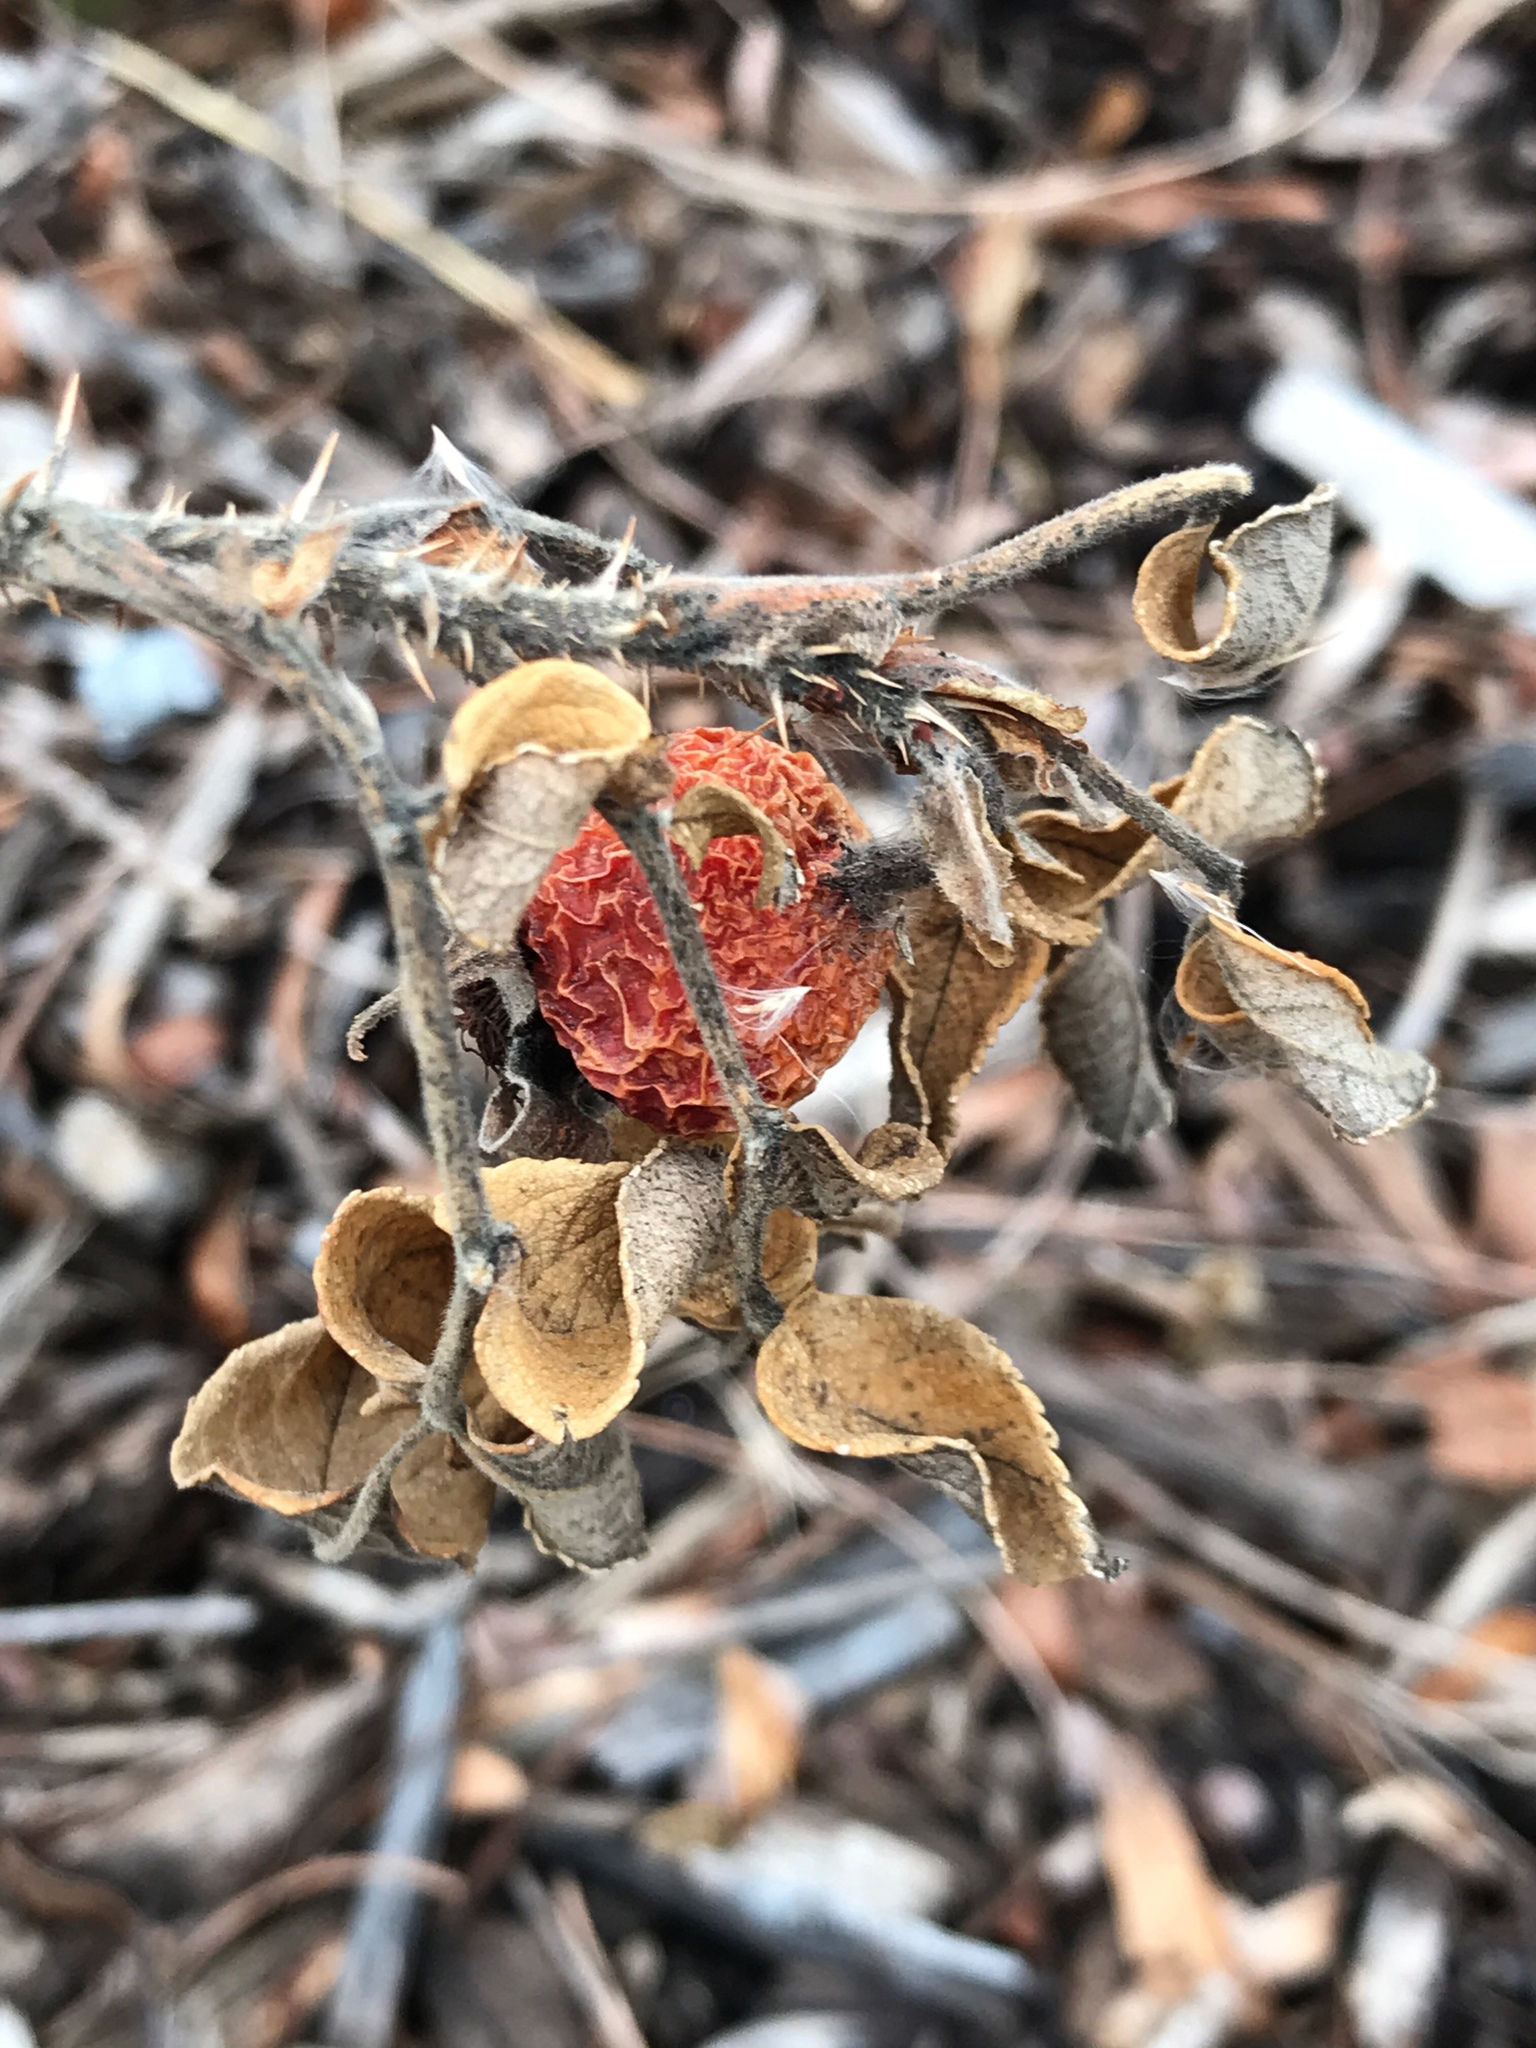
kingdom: Plantae
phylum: Tracheophyta
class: Magnoliopsida
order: Rosales
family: Rosaceae
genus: Rosa
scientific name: Rosa rugosa
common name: Japanese rose
